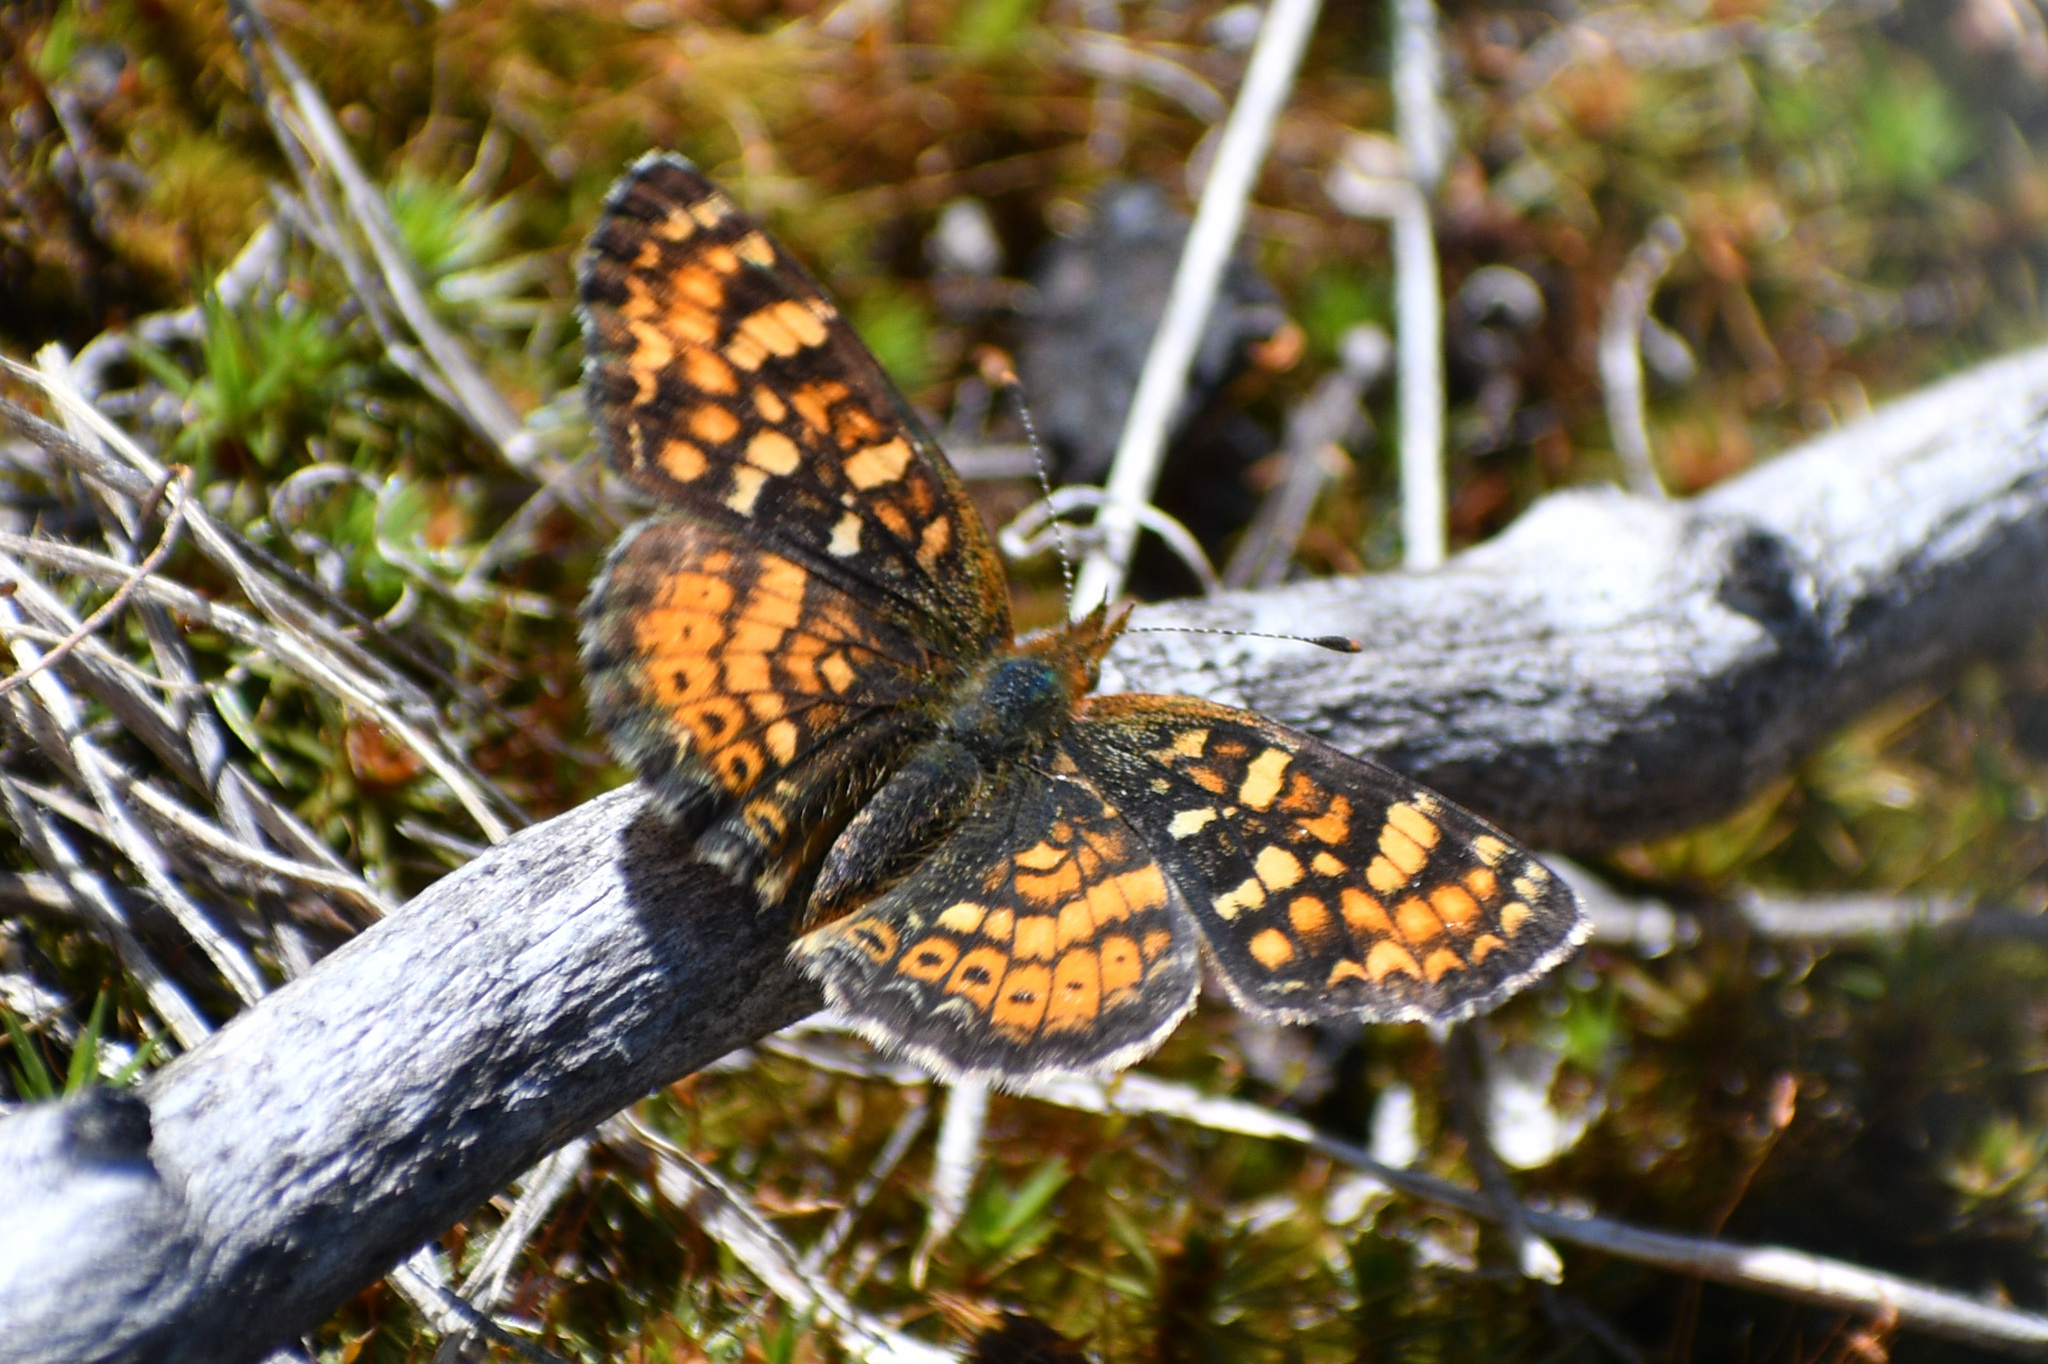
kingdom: Animalia
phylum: Arthropoda
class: Insecta
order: Lepidoptera
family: Nymphalidae
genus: Phyciodes
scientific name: Phyciodes tharos
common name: Pearl crescent
